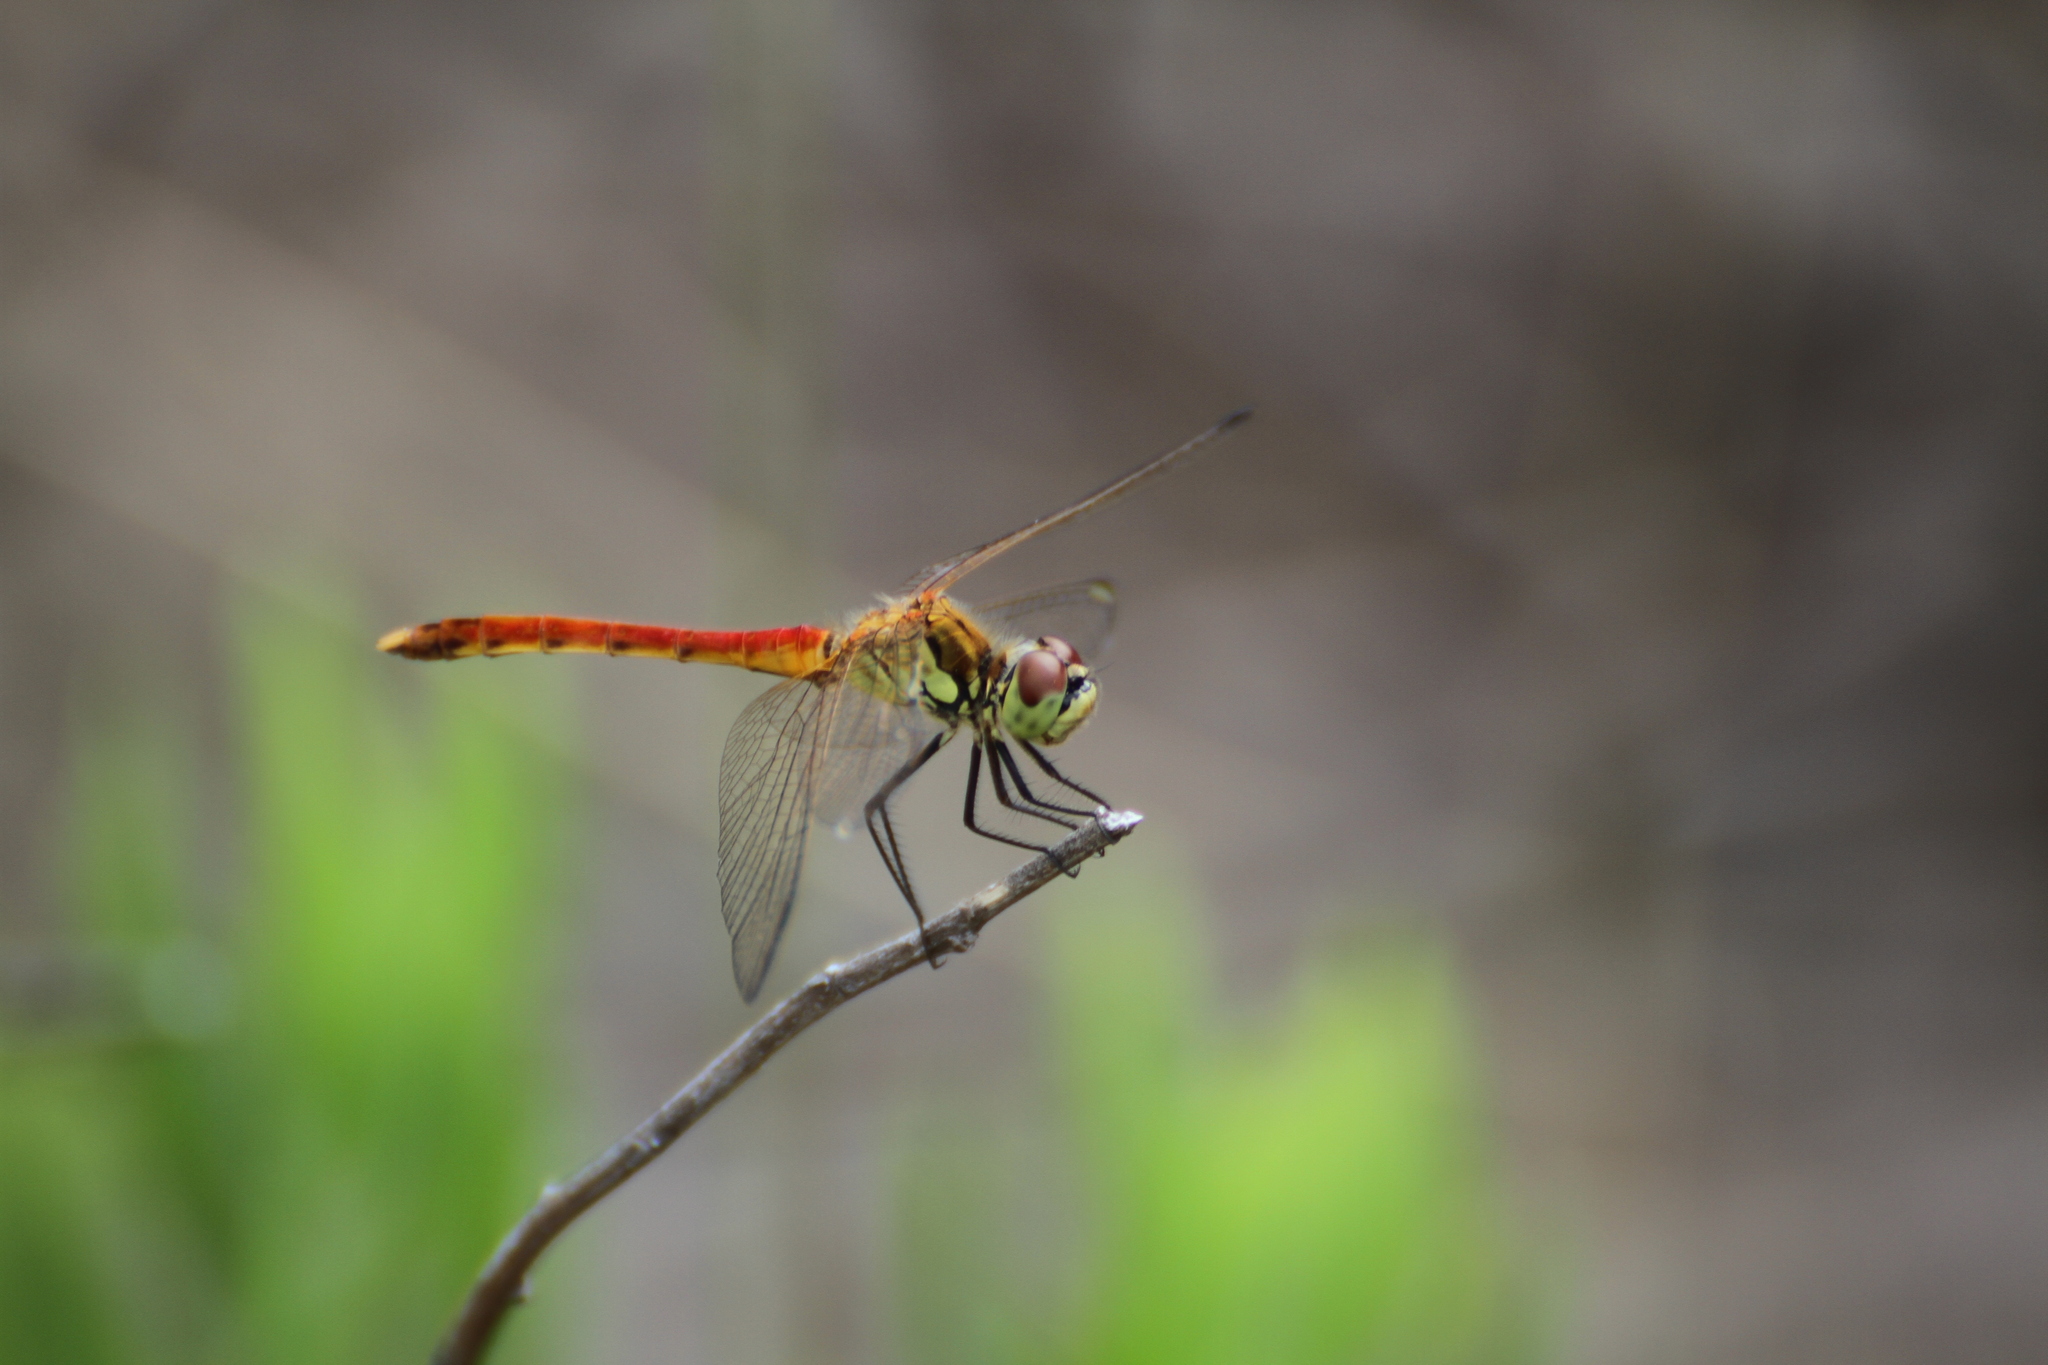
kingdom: Animalia
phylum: Arthropoda
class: Insecta
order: Odonata
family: Libellulidae
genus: Sympetrum
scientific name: Sympetrum depressiusculum
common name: Spotted darter
